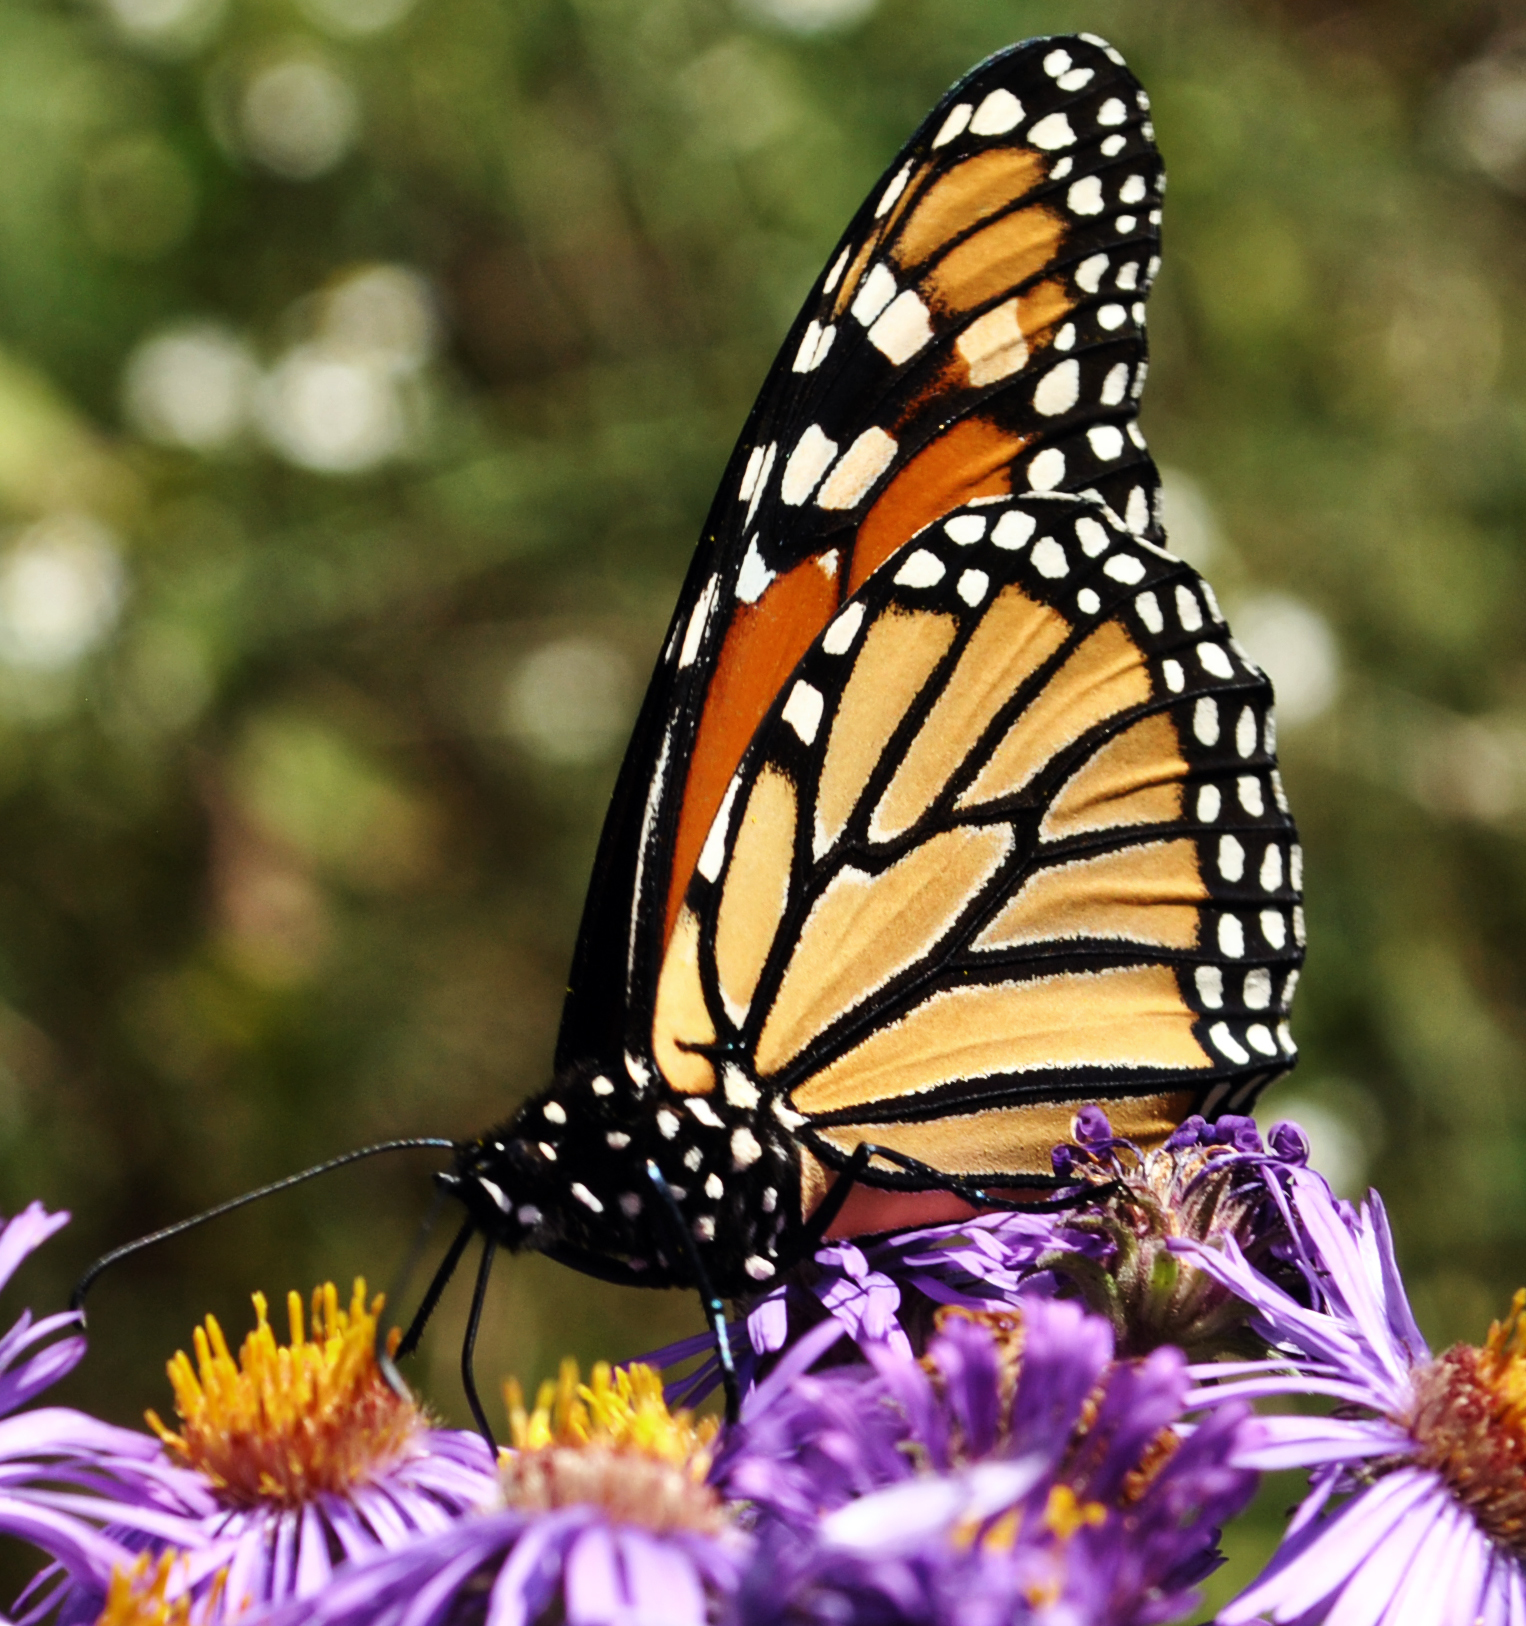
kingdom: Animalia
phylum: Arthropoda
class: Insecta
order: Lepidoptera
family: Nymphalidae
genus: Danaus
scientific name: Danaus plexippus
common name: Monarch
